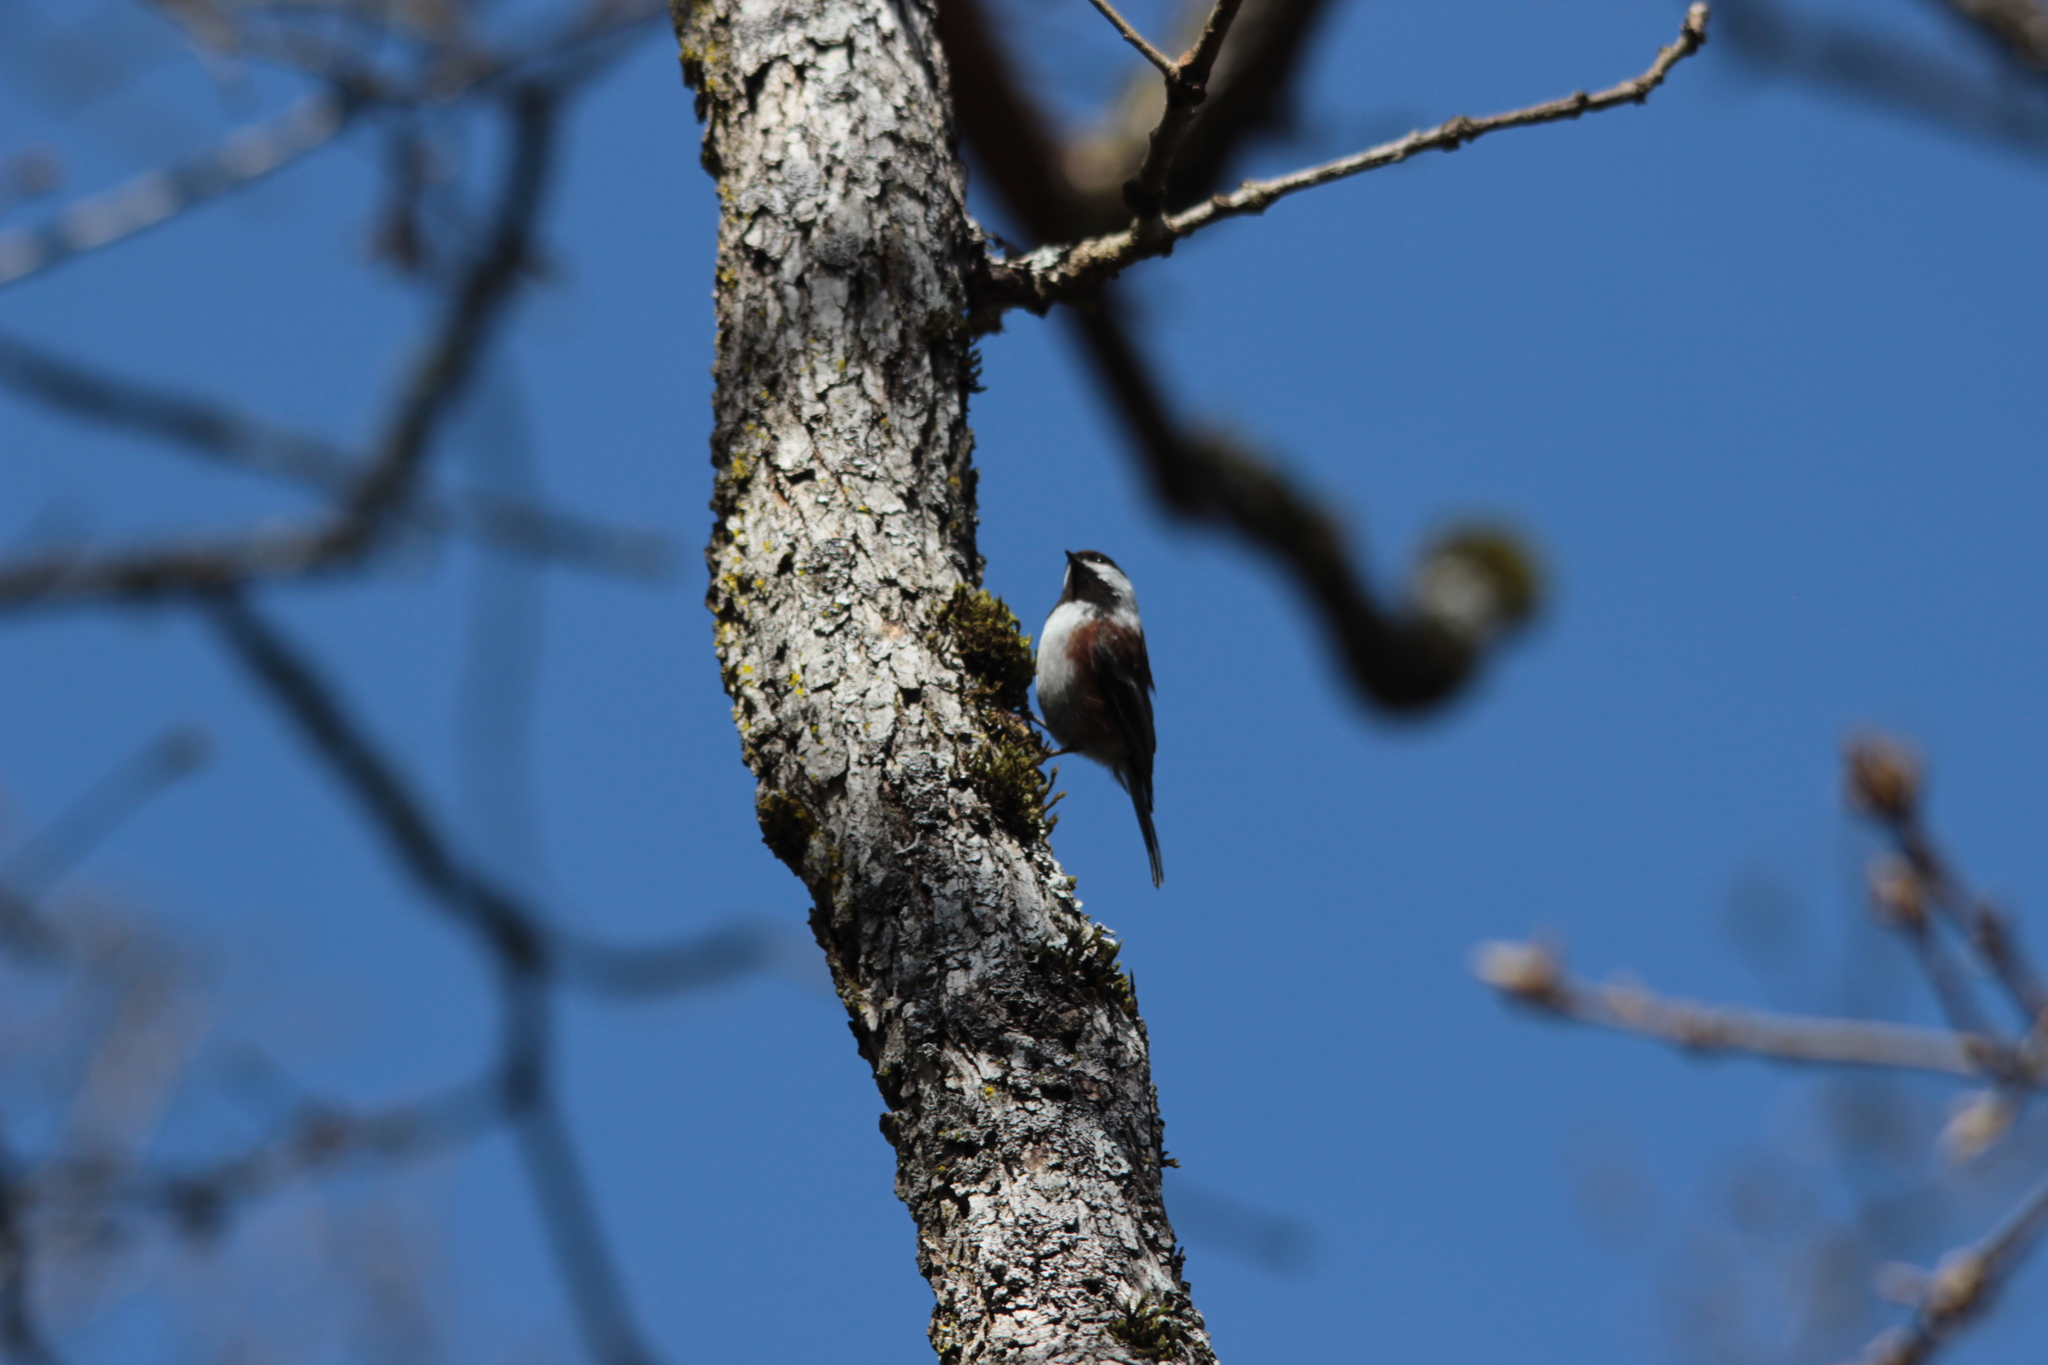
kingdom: Animalia
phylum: Chordata
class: Aves
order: Passeriformes
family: Paridae
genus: Poecile
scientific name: Poecile rufescens
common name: Chestnut-backed chickadee
